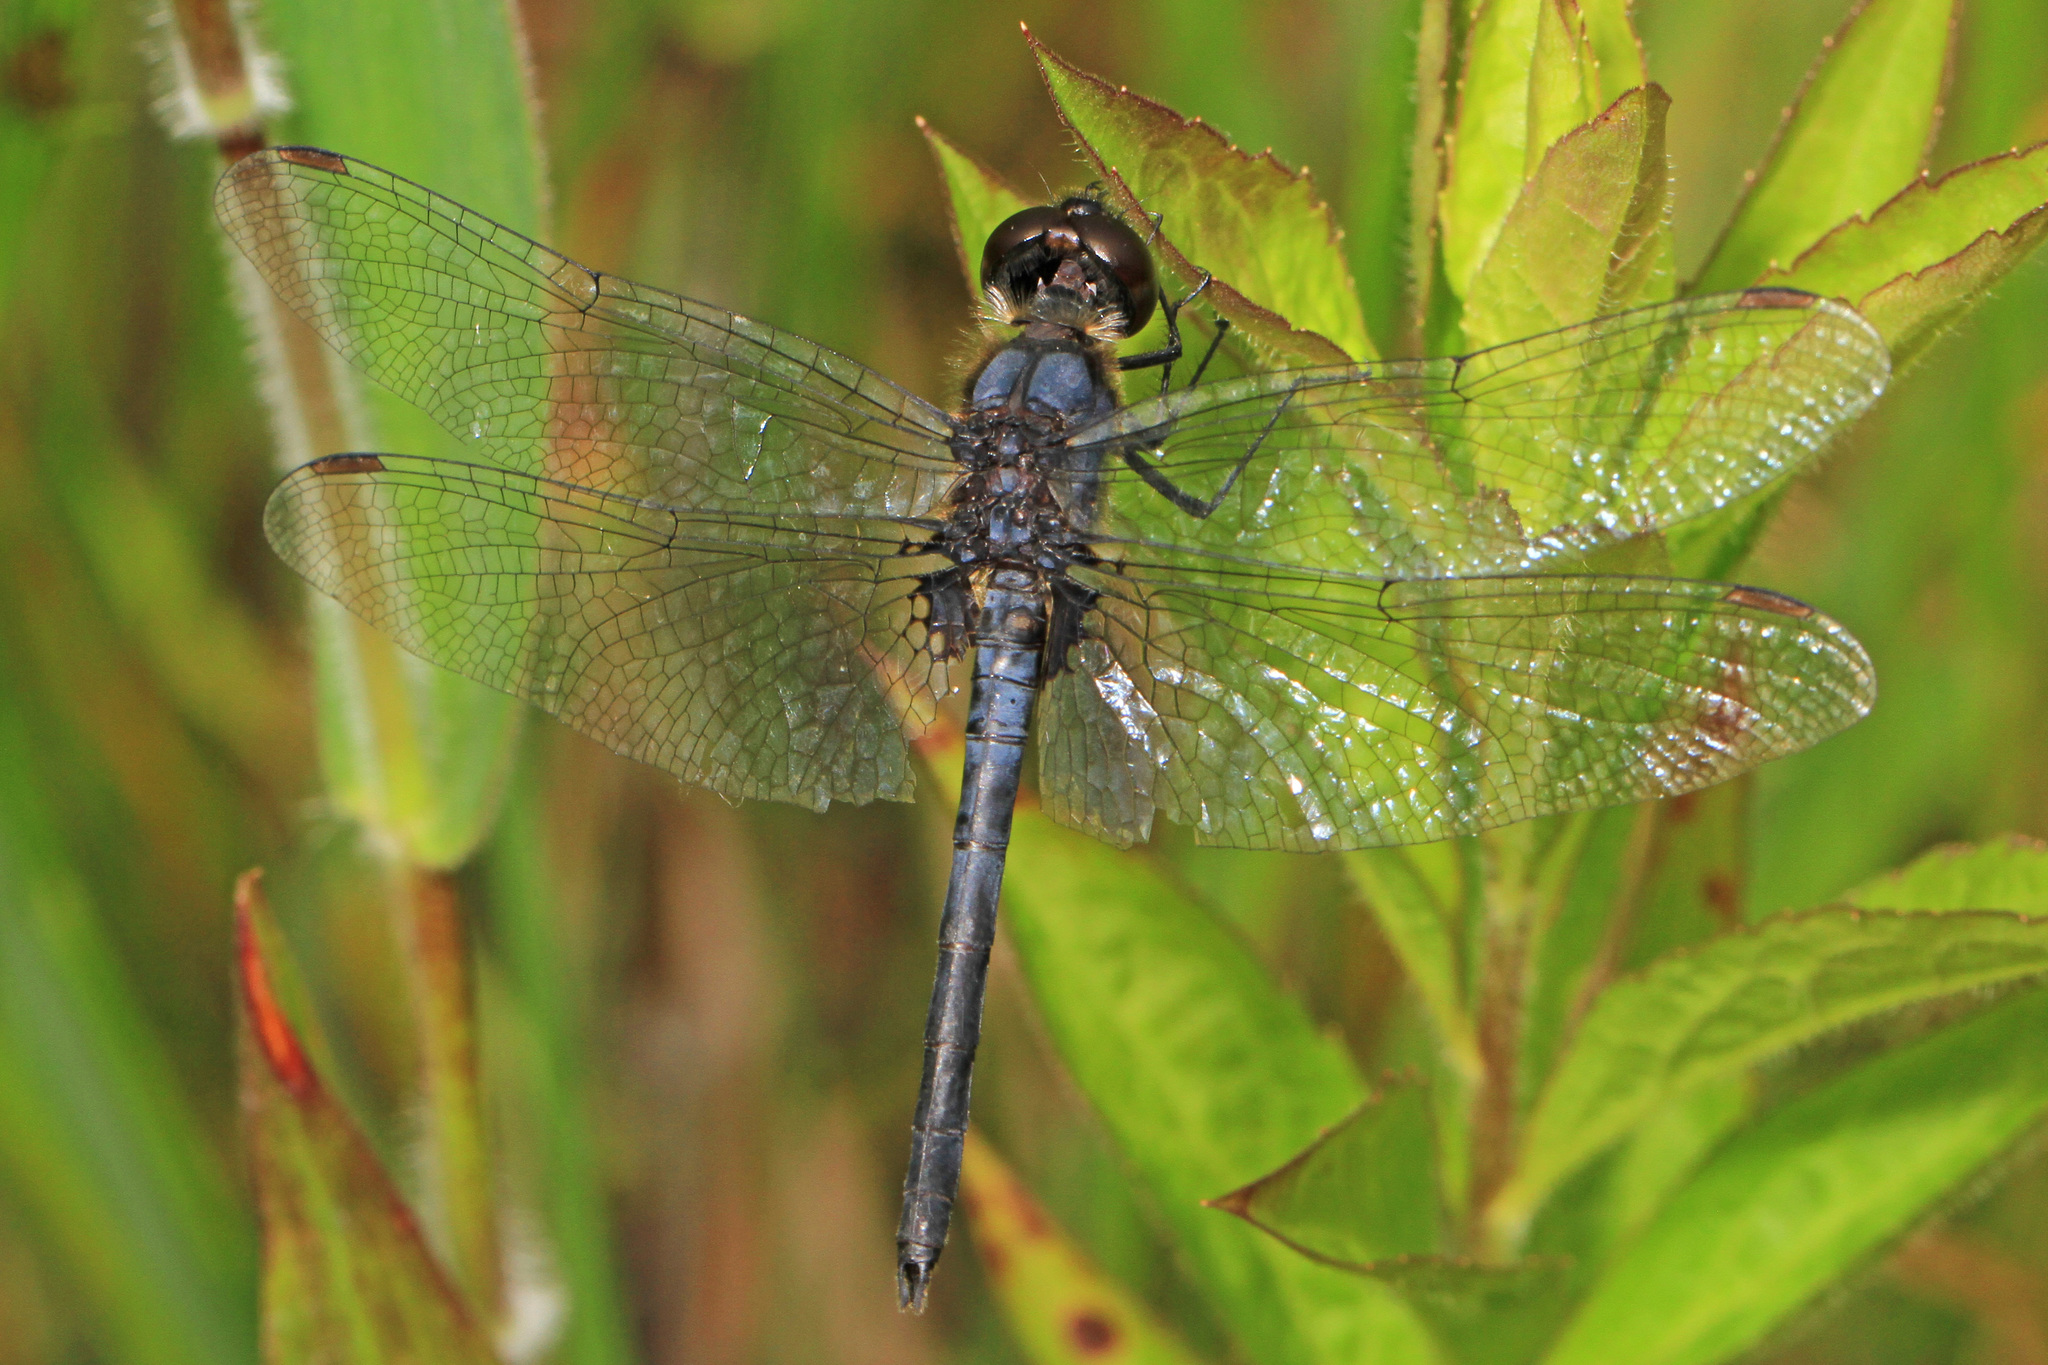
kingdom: Animalia
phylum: Arthropoda
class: Insecta
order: Odonata
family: Libellulidae
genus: Celithemis
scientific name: Celithemis verna
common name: Double-ringed pennant
